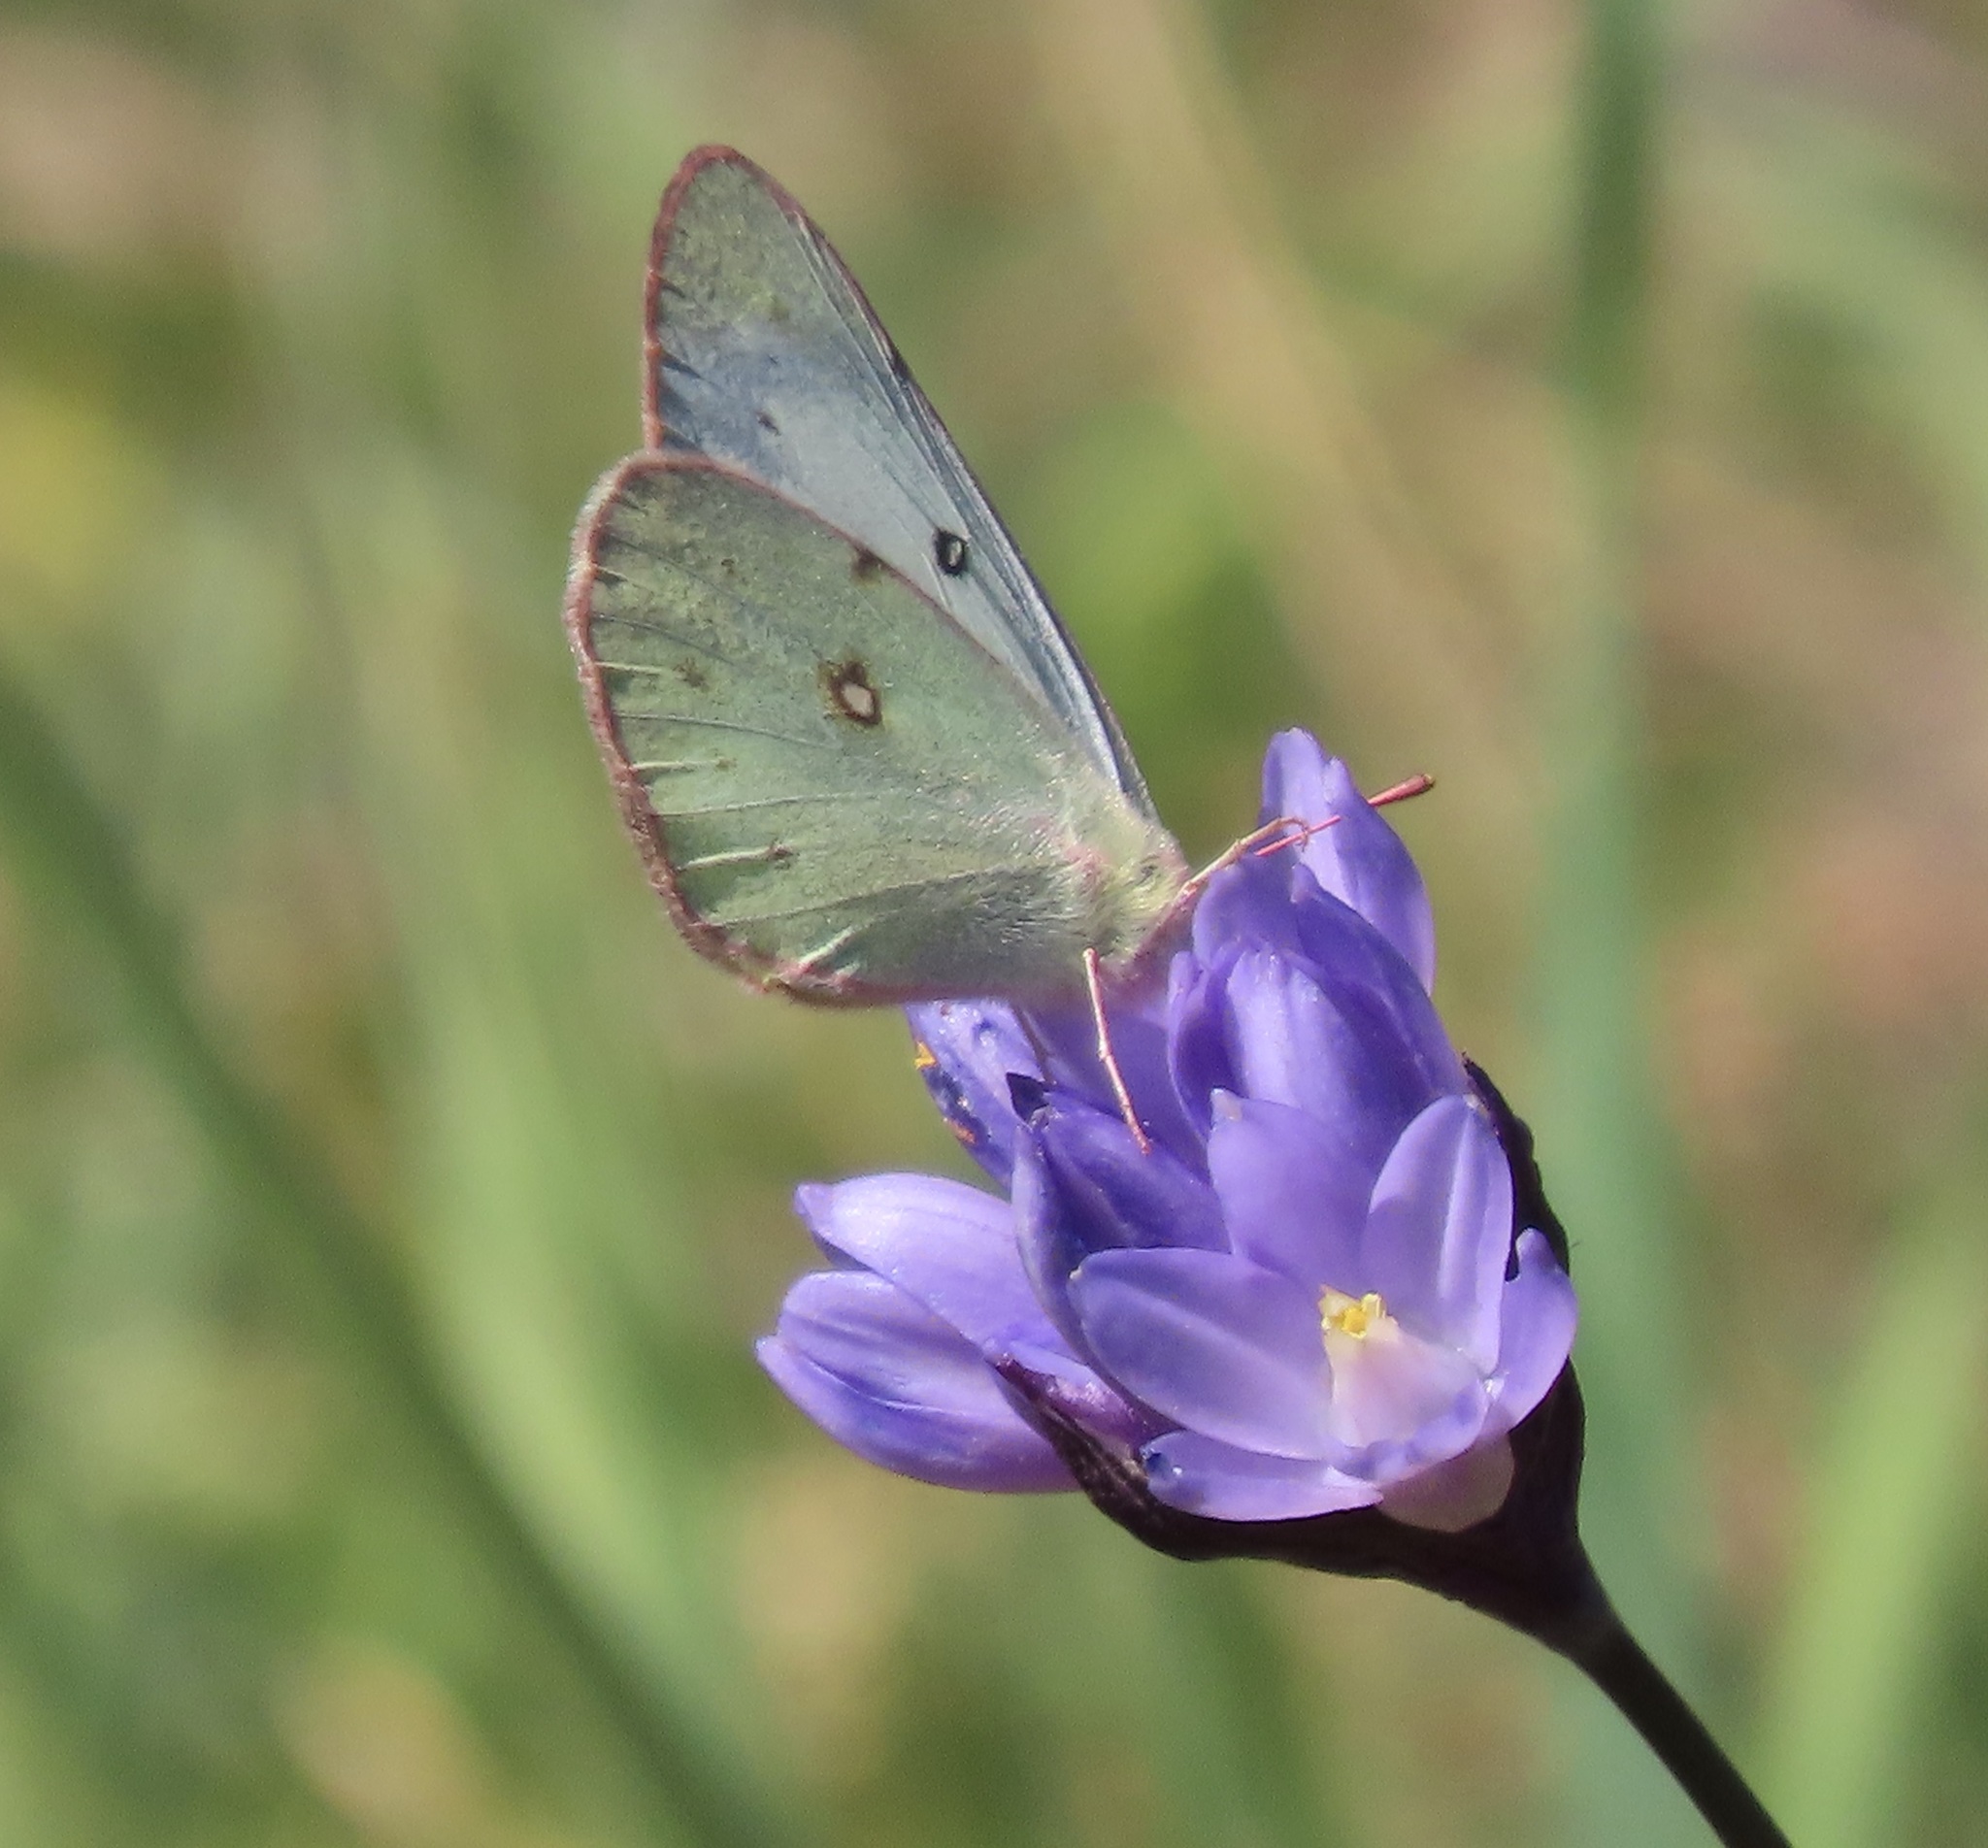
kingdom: Animalia
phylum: Arthropoda
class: Insecta
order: Lepidoptera
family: Pieridae
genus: Colias
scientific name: Colias eurytheme
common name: Alfalfa butterfly
